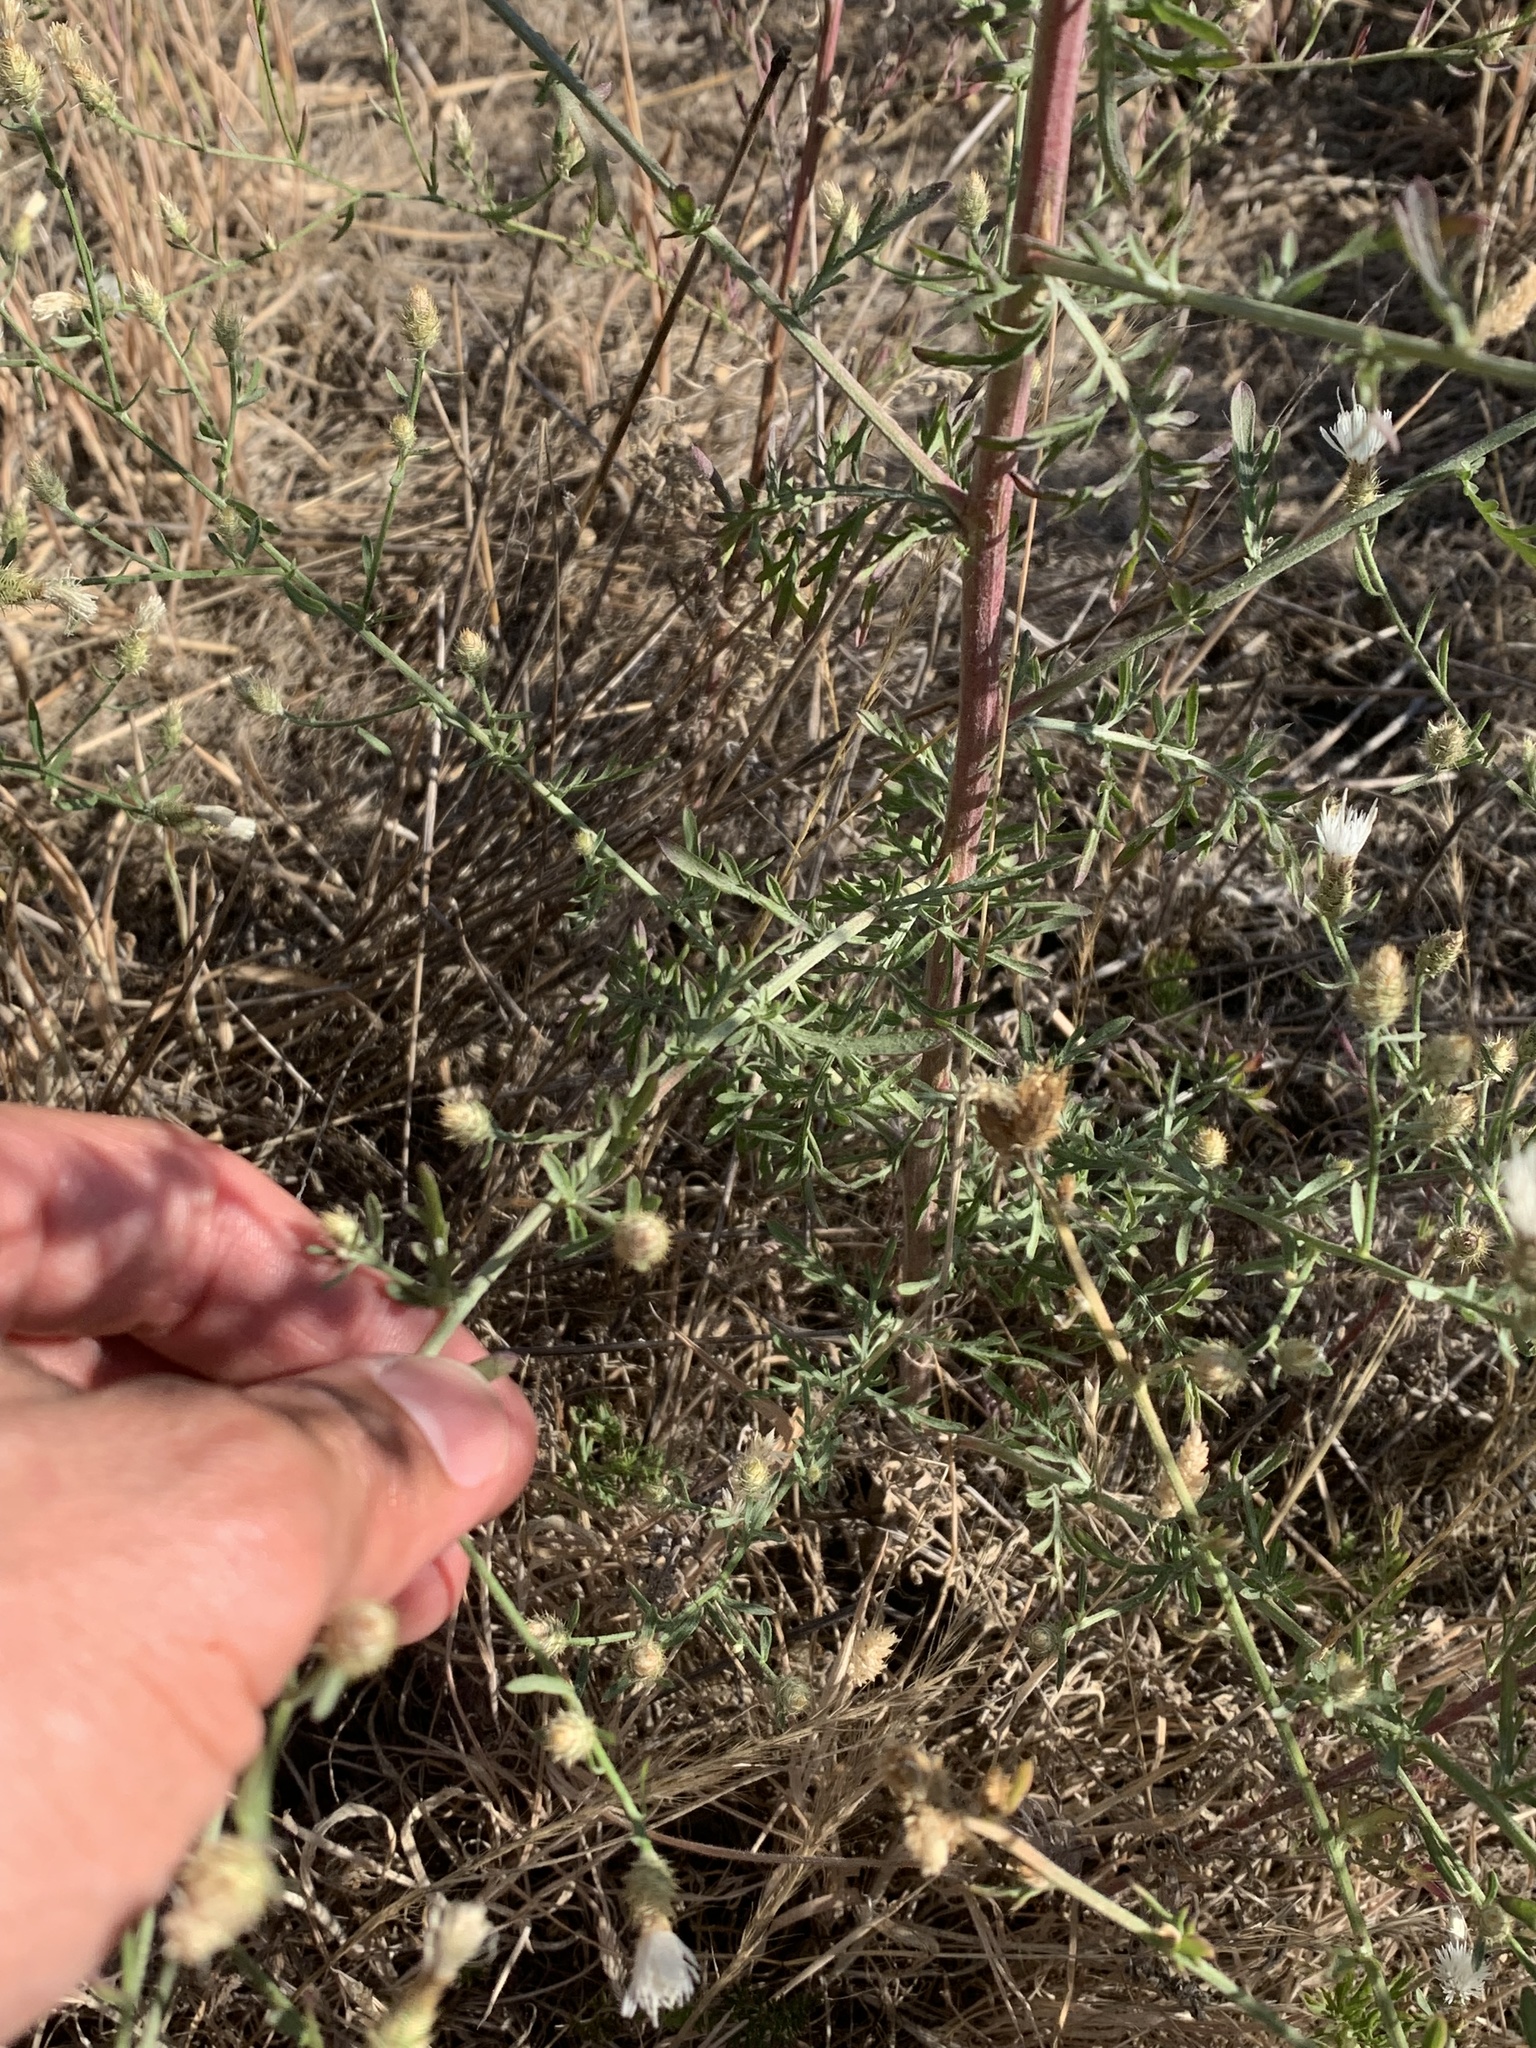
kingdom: Plantae
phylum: Tracheophyta
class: Magnoliopsida
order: Asterales
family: Asteraceae
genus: Centaurea
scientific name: Centaurea diffusa
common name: Diffuse knapweed
